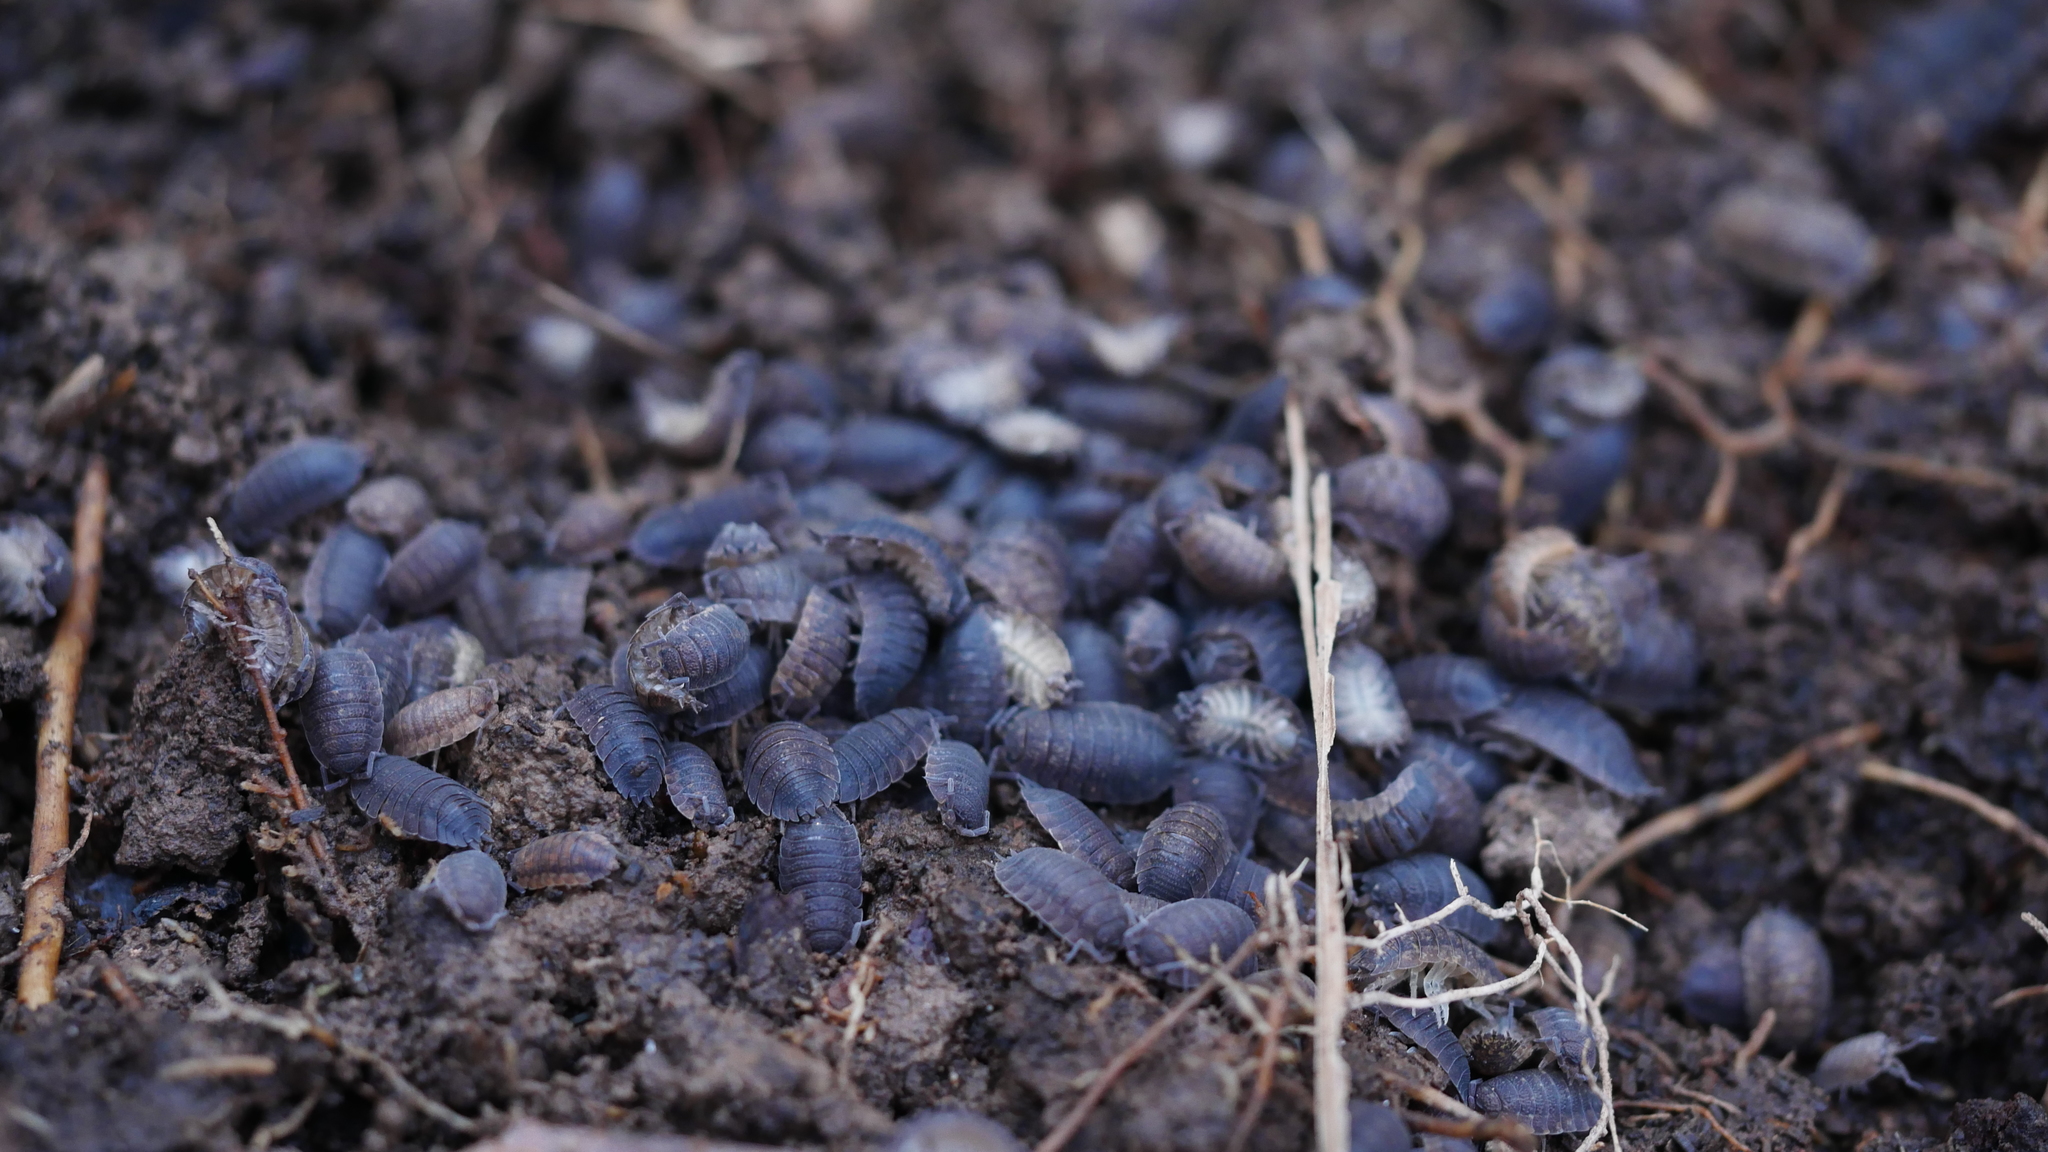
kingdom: Animalia
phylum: Arthropoda
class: Malacostraca
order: Isopoda
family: Porcellionidae
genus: Porcellio
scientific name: Porcellio scaber
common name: Common rough woodlouse
